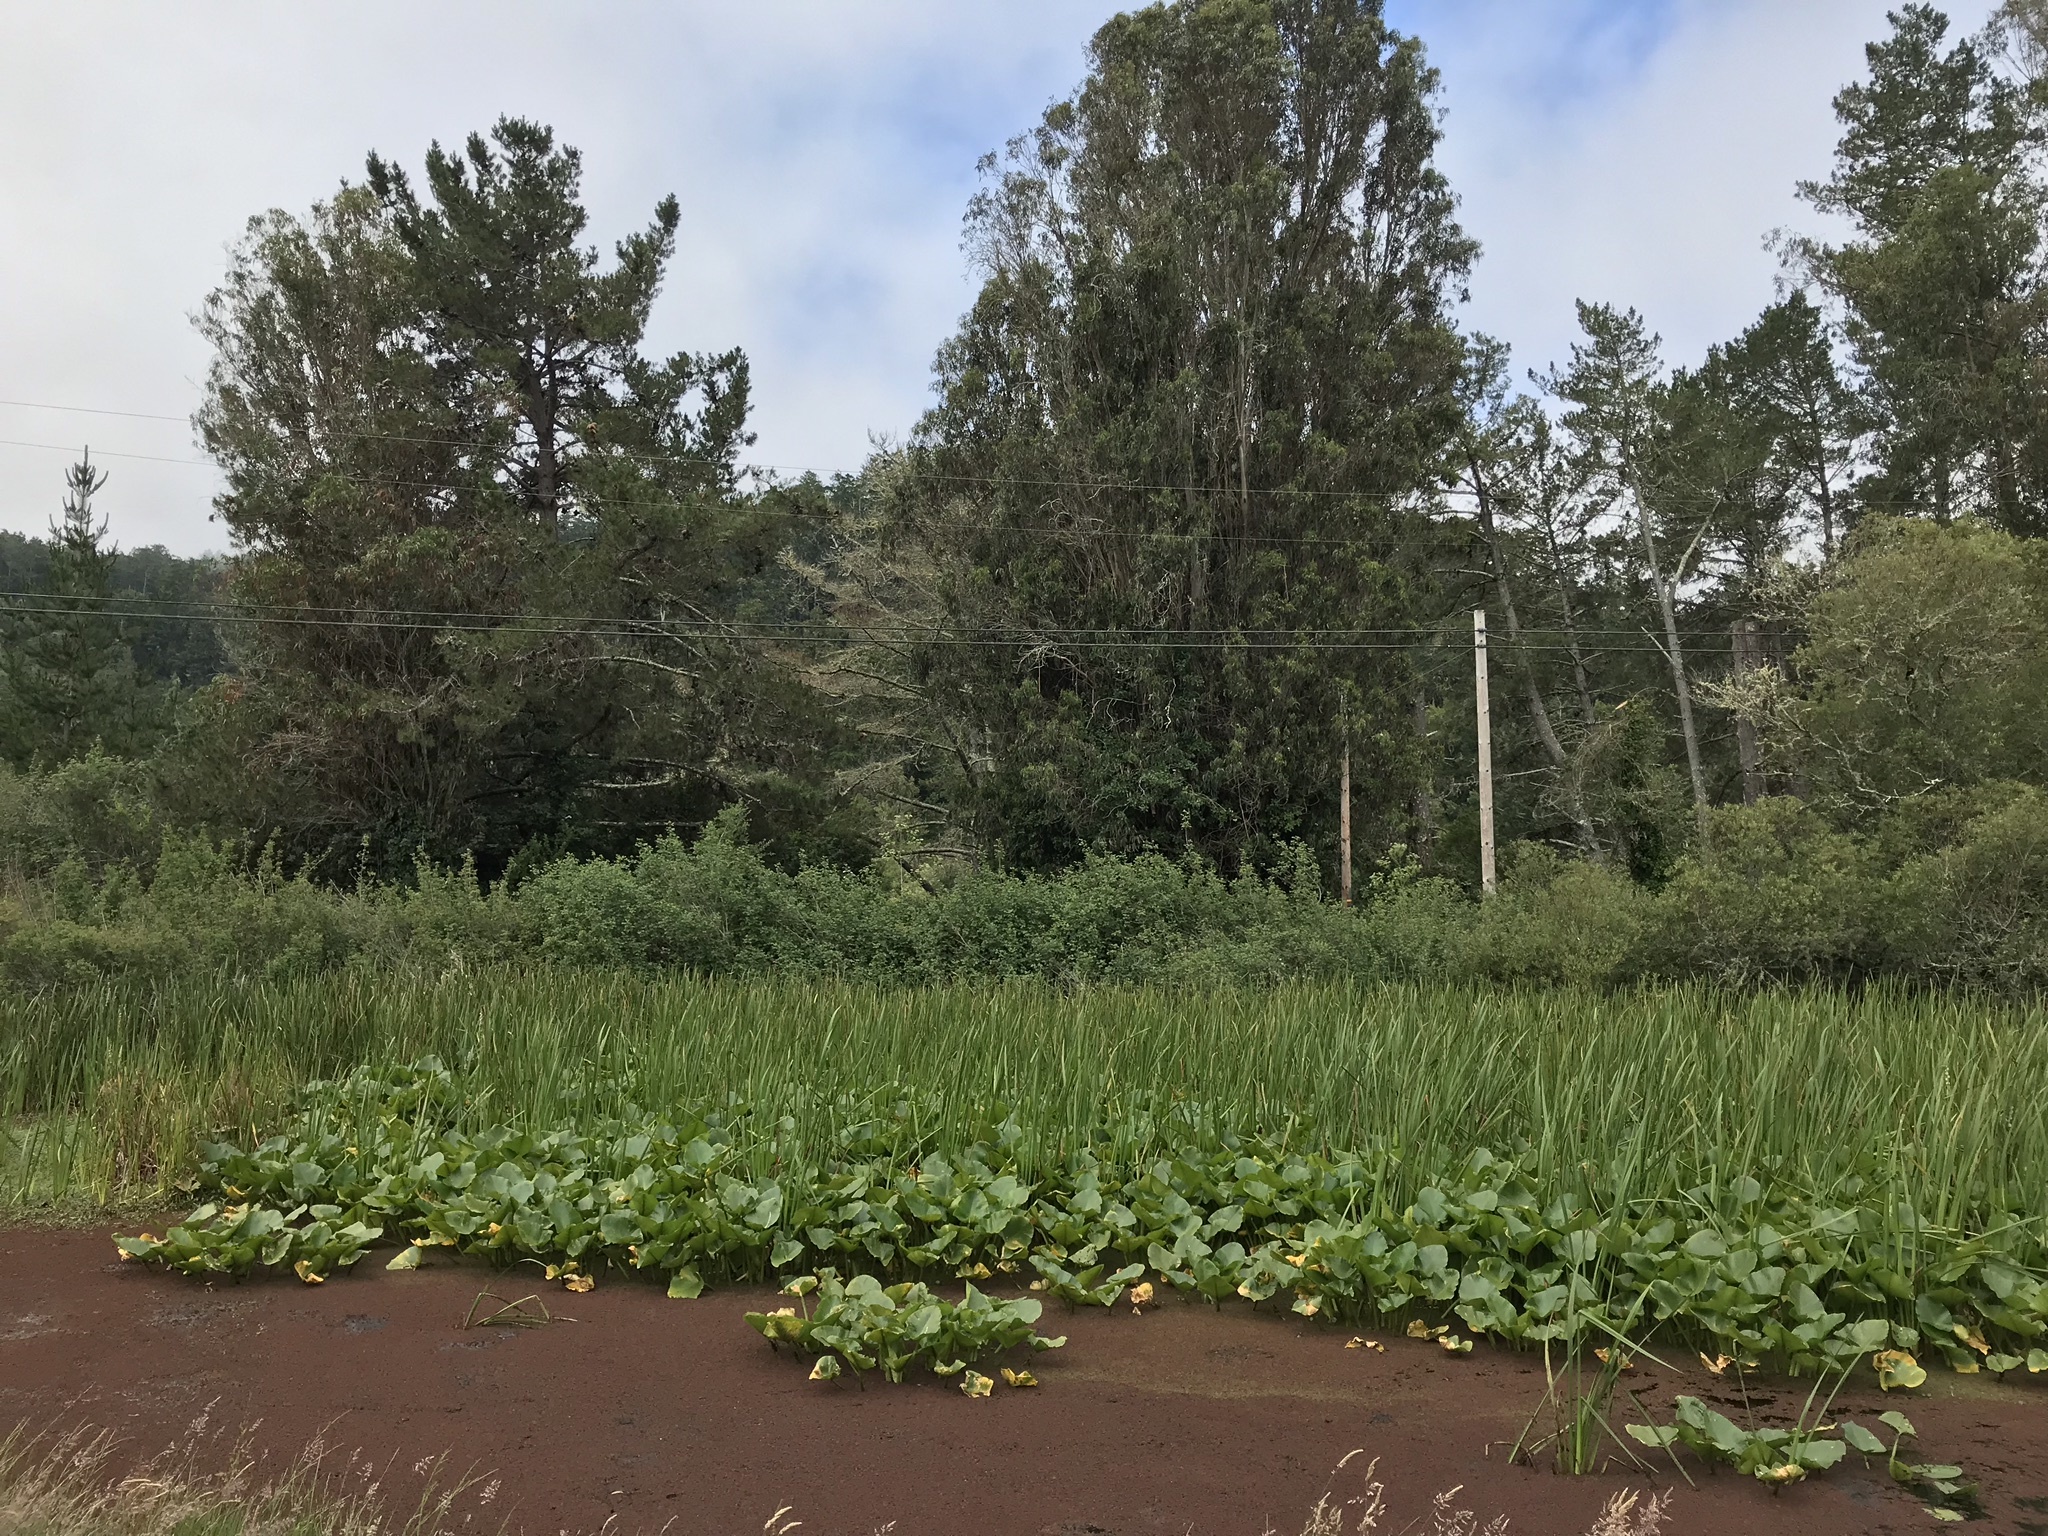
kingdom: Plantae
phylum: Tracheophyta
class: Magnoliopsida
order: Nymphaeales
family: Nymphaeaceae
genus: Nuphar
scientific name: Nuphar polysepala
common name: Rocky mountain cow-lily
